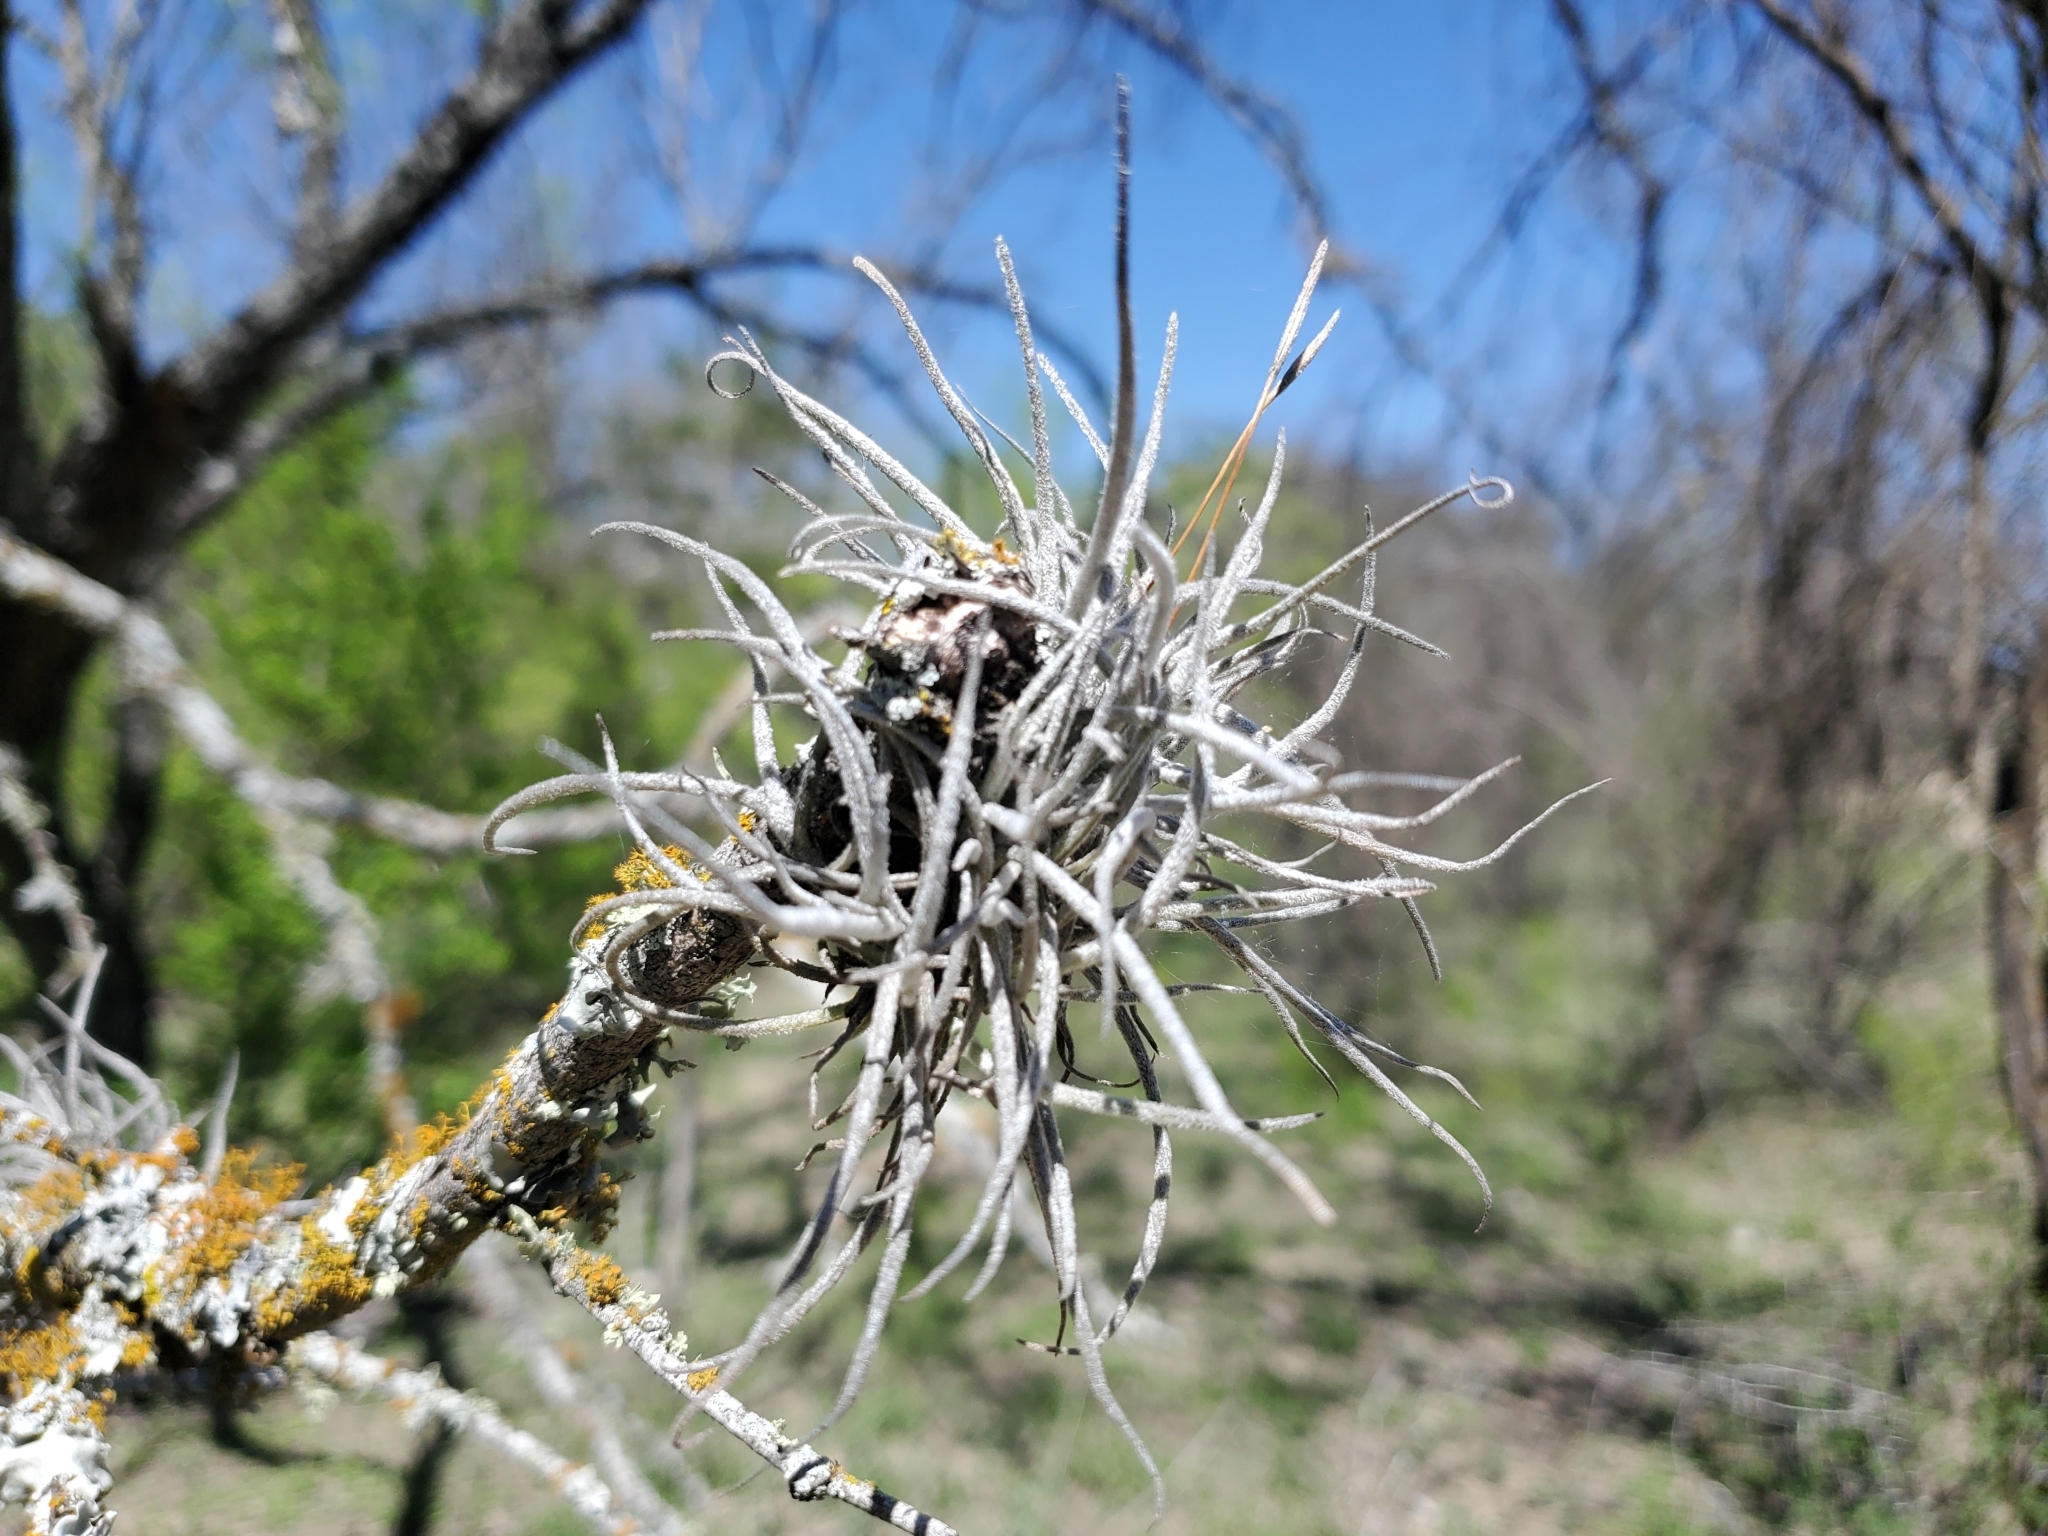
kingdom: Plantae
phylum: Tracheophyta
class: Liliopsida
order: Poales
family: Bromeliaceae
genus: Tillandsia
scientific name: Tillandsia recurvata
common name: Small ballmoss
